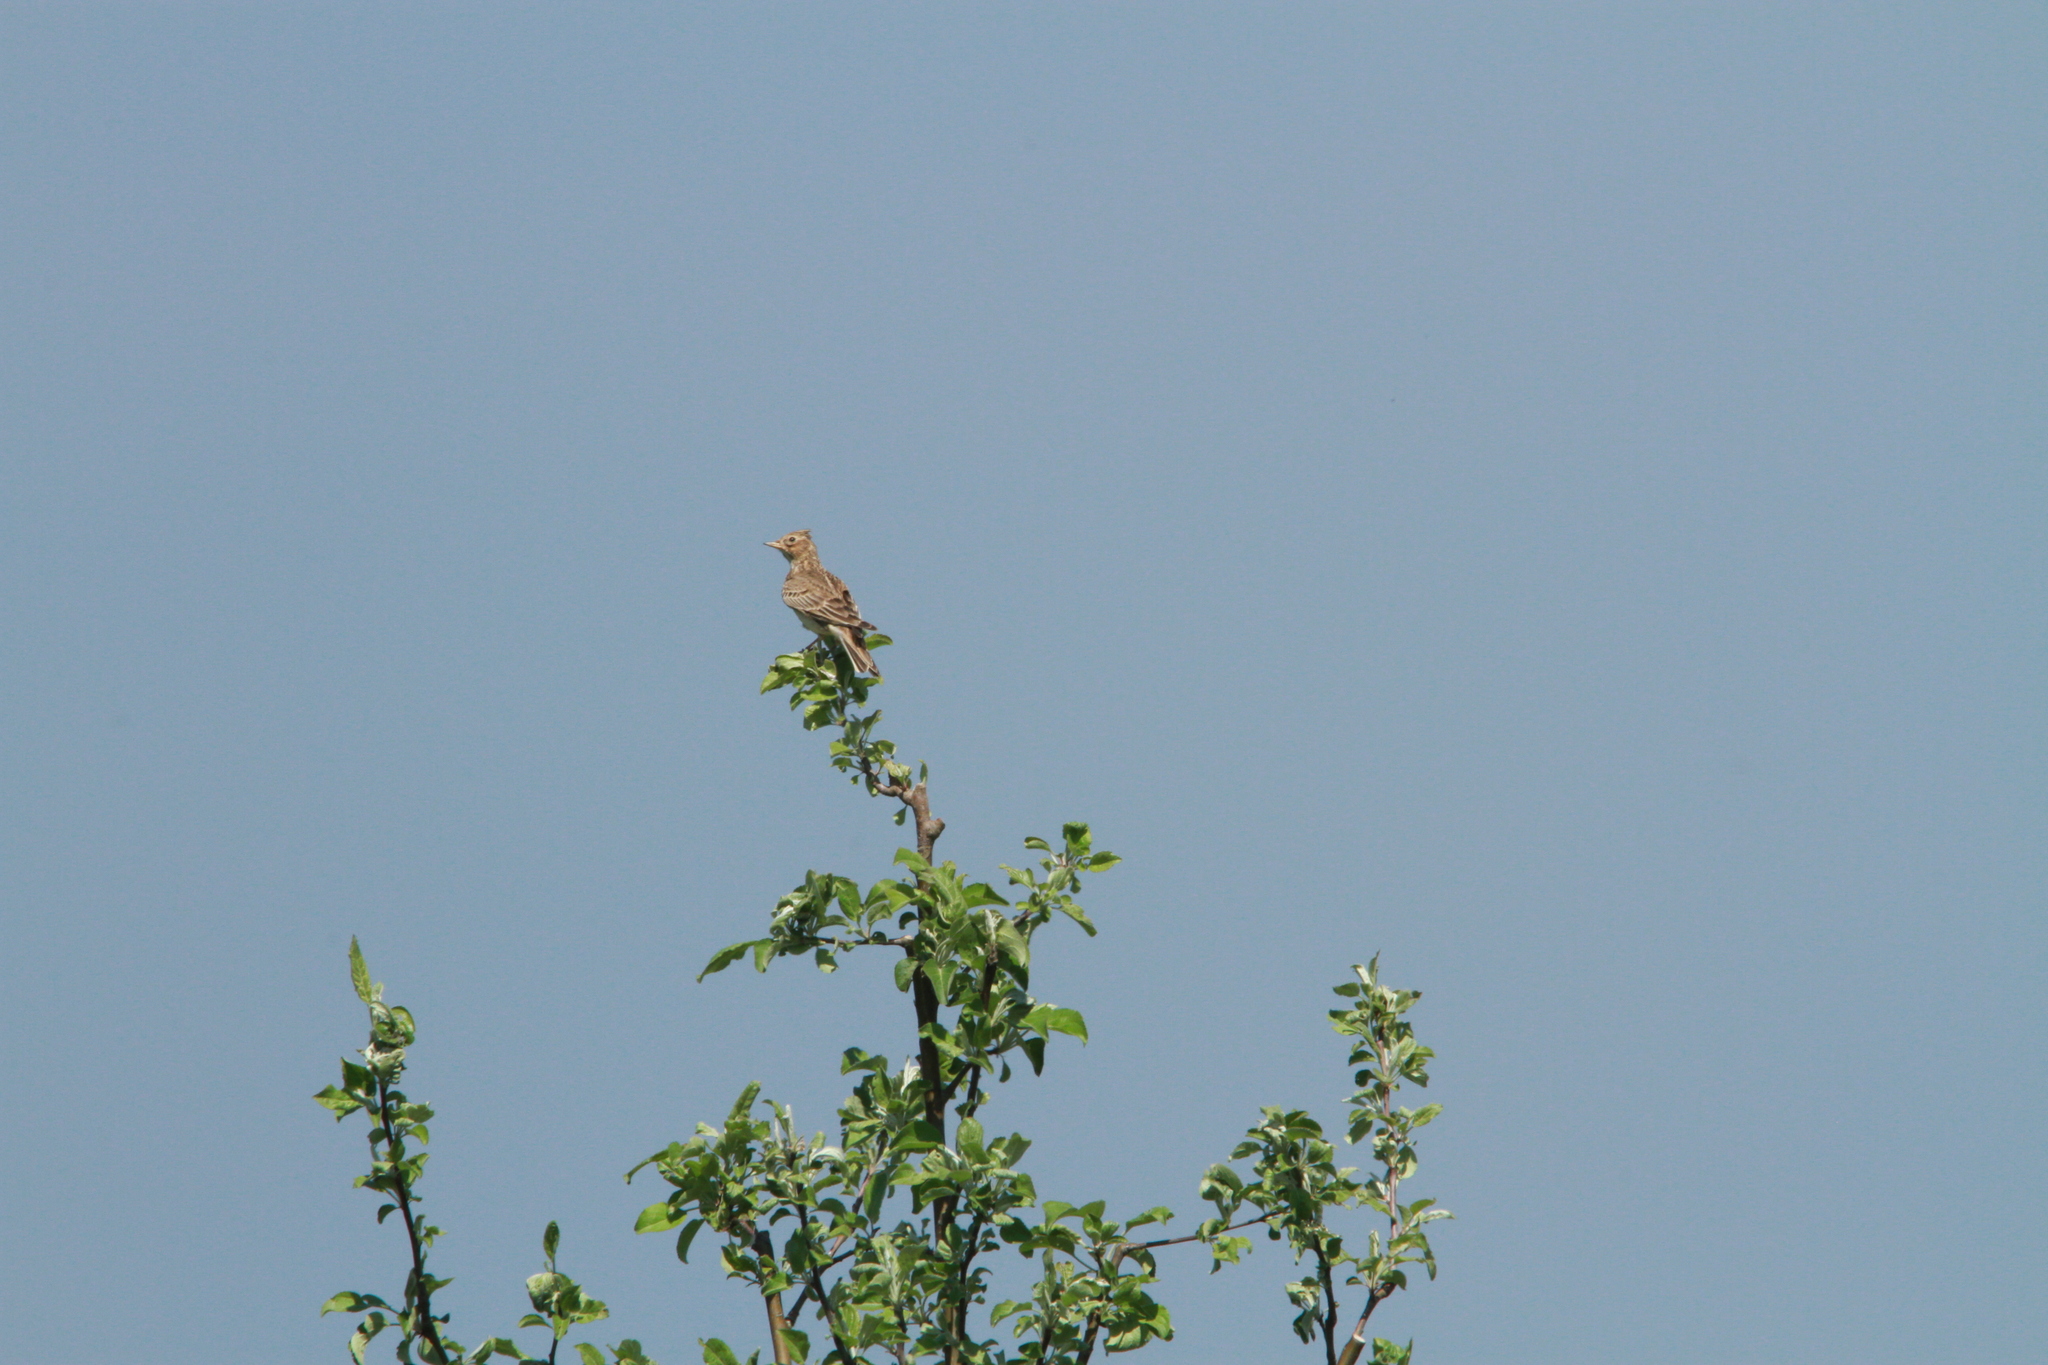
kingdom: Animalia
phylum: Chordata
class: Aves
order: Passeriformes
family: Alaudidae
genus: Alauda
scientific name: Alauda arvensis
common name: Eurasian skylark
